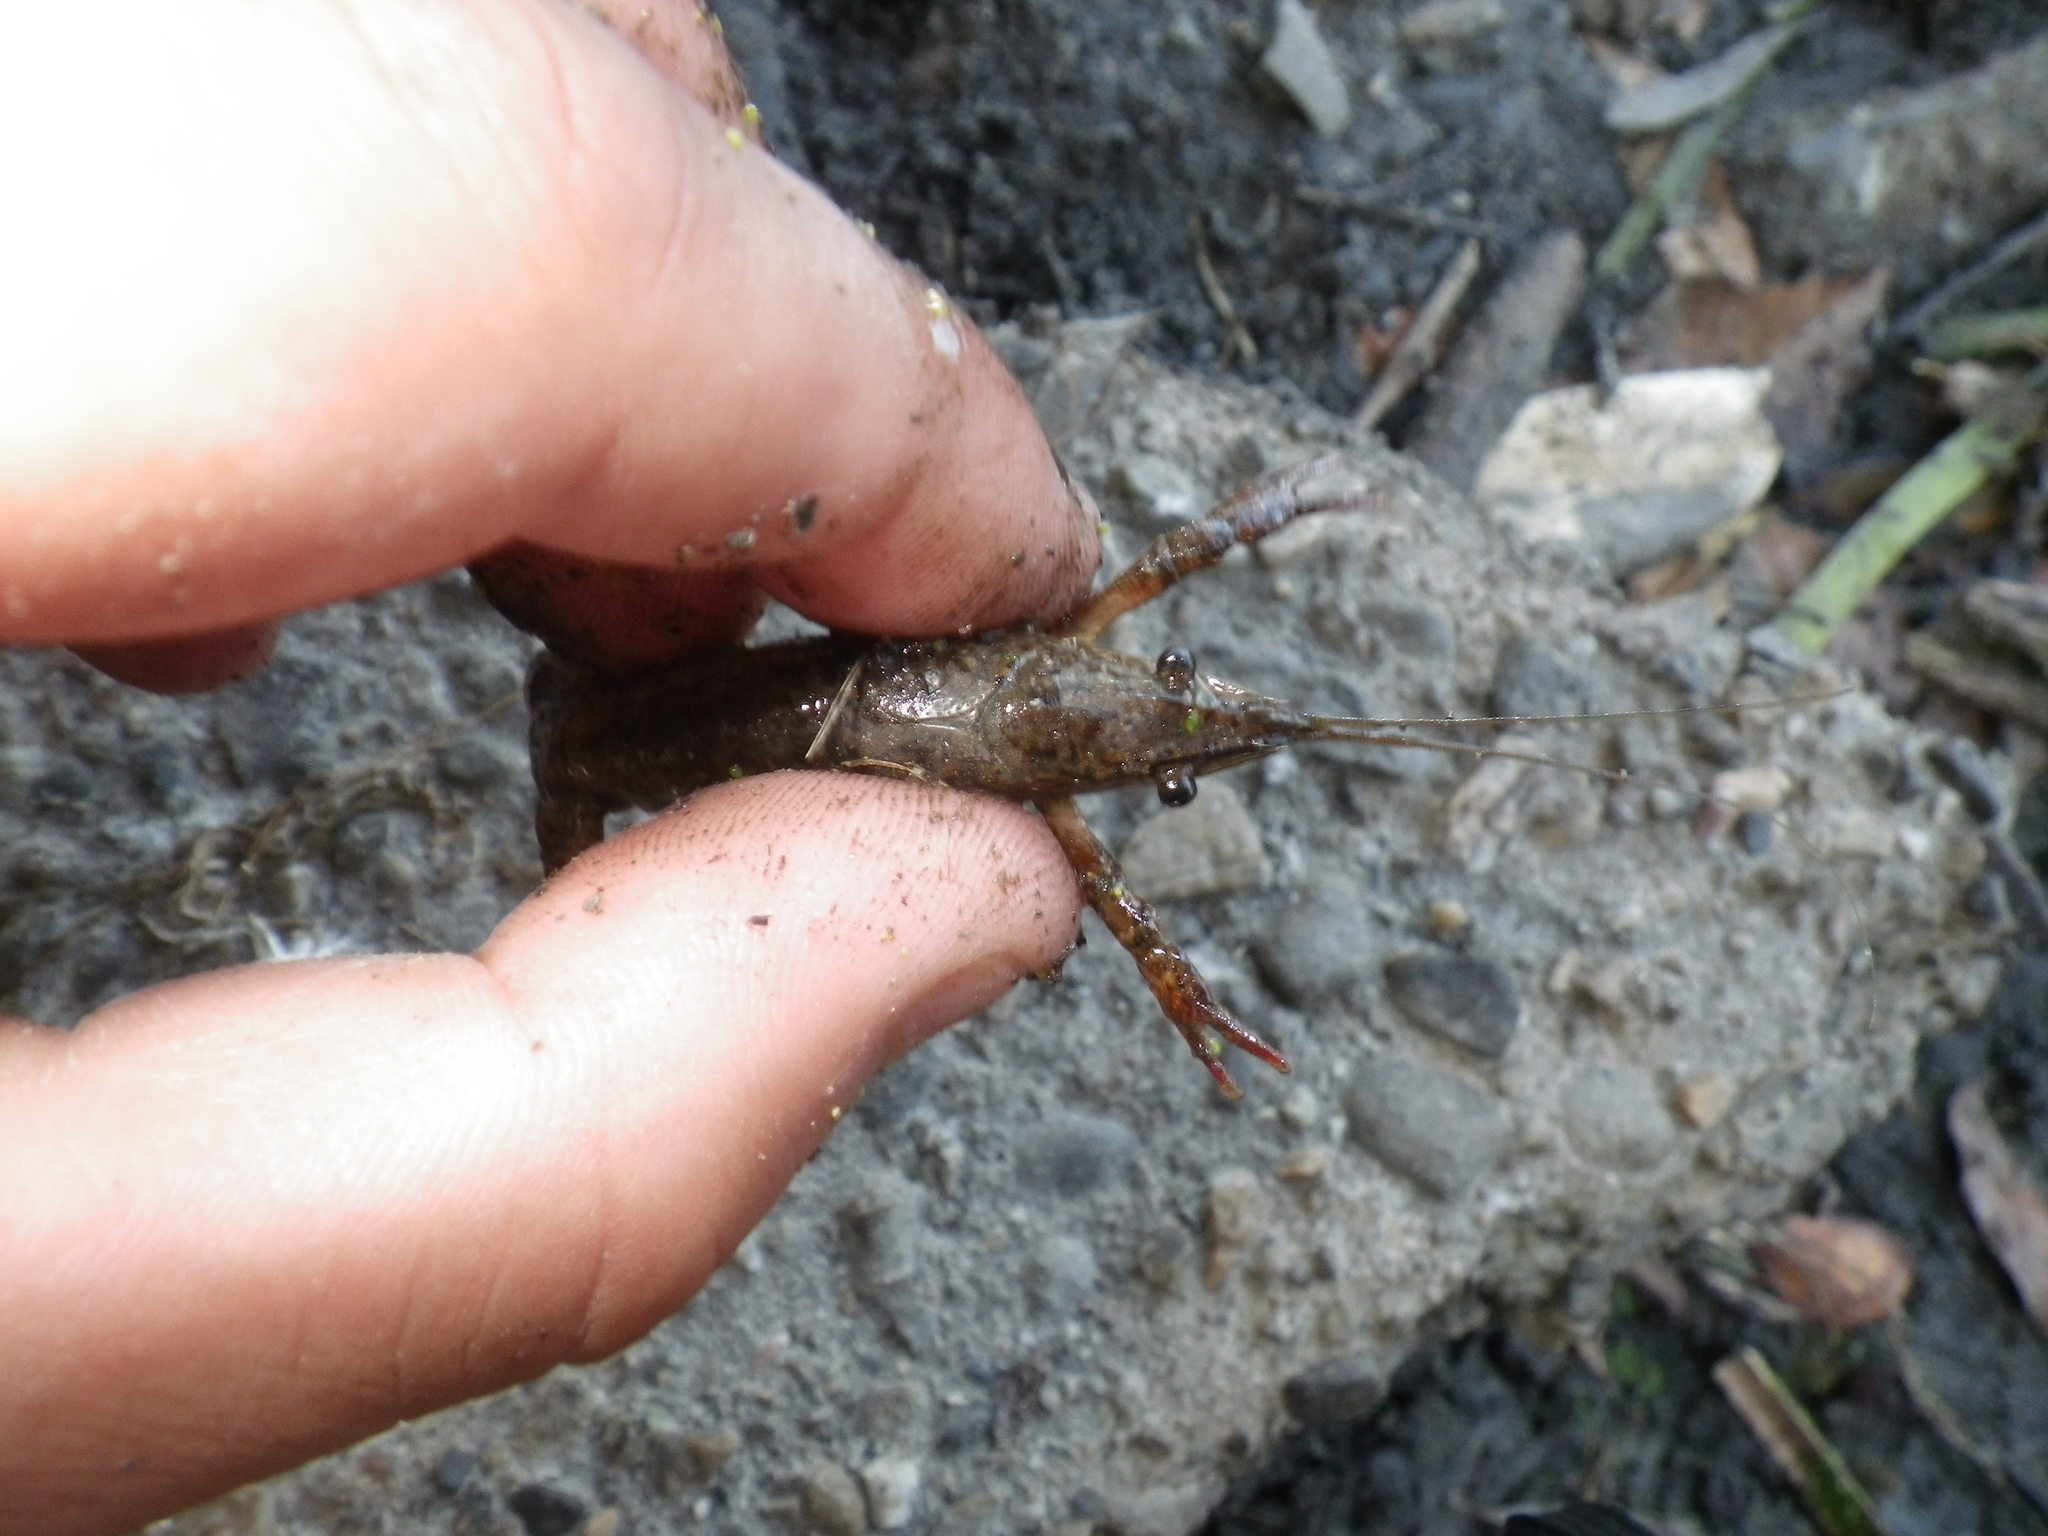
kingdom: Animalia
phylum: Arthropoda
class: Malacostraca
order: Decapoda
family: Cambaridae
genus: Procambarus
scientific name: Procambarus clarkii
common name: Red swamp crayfish
